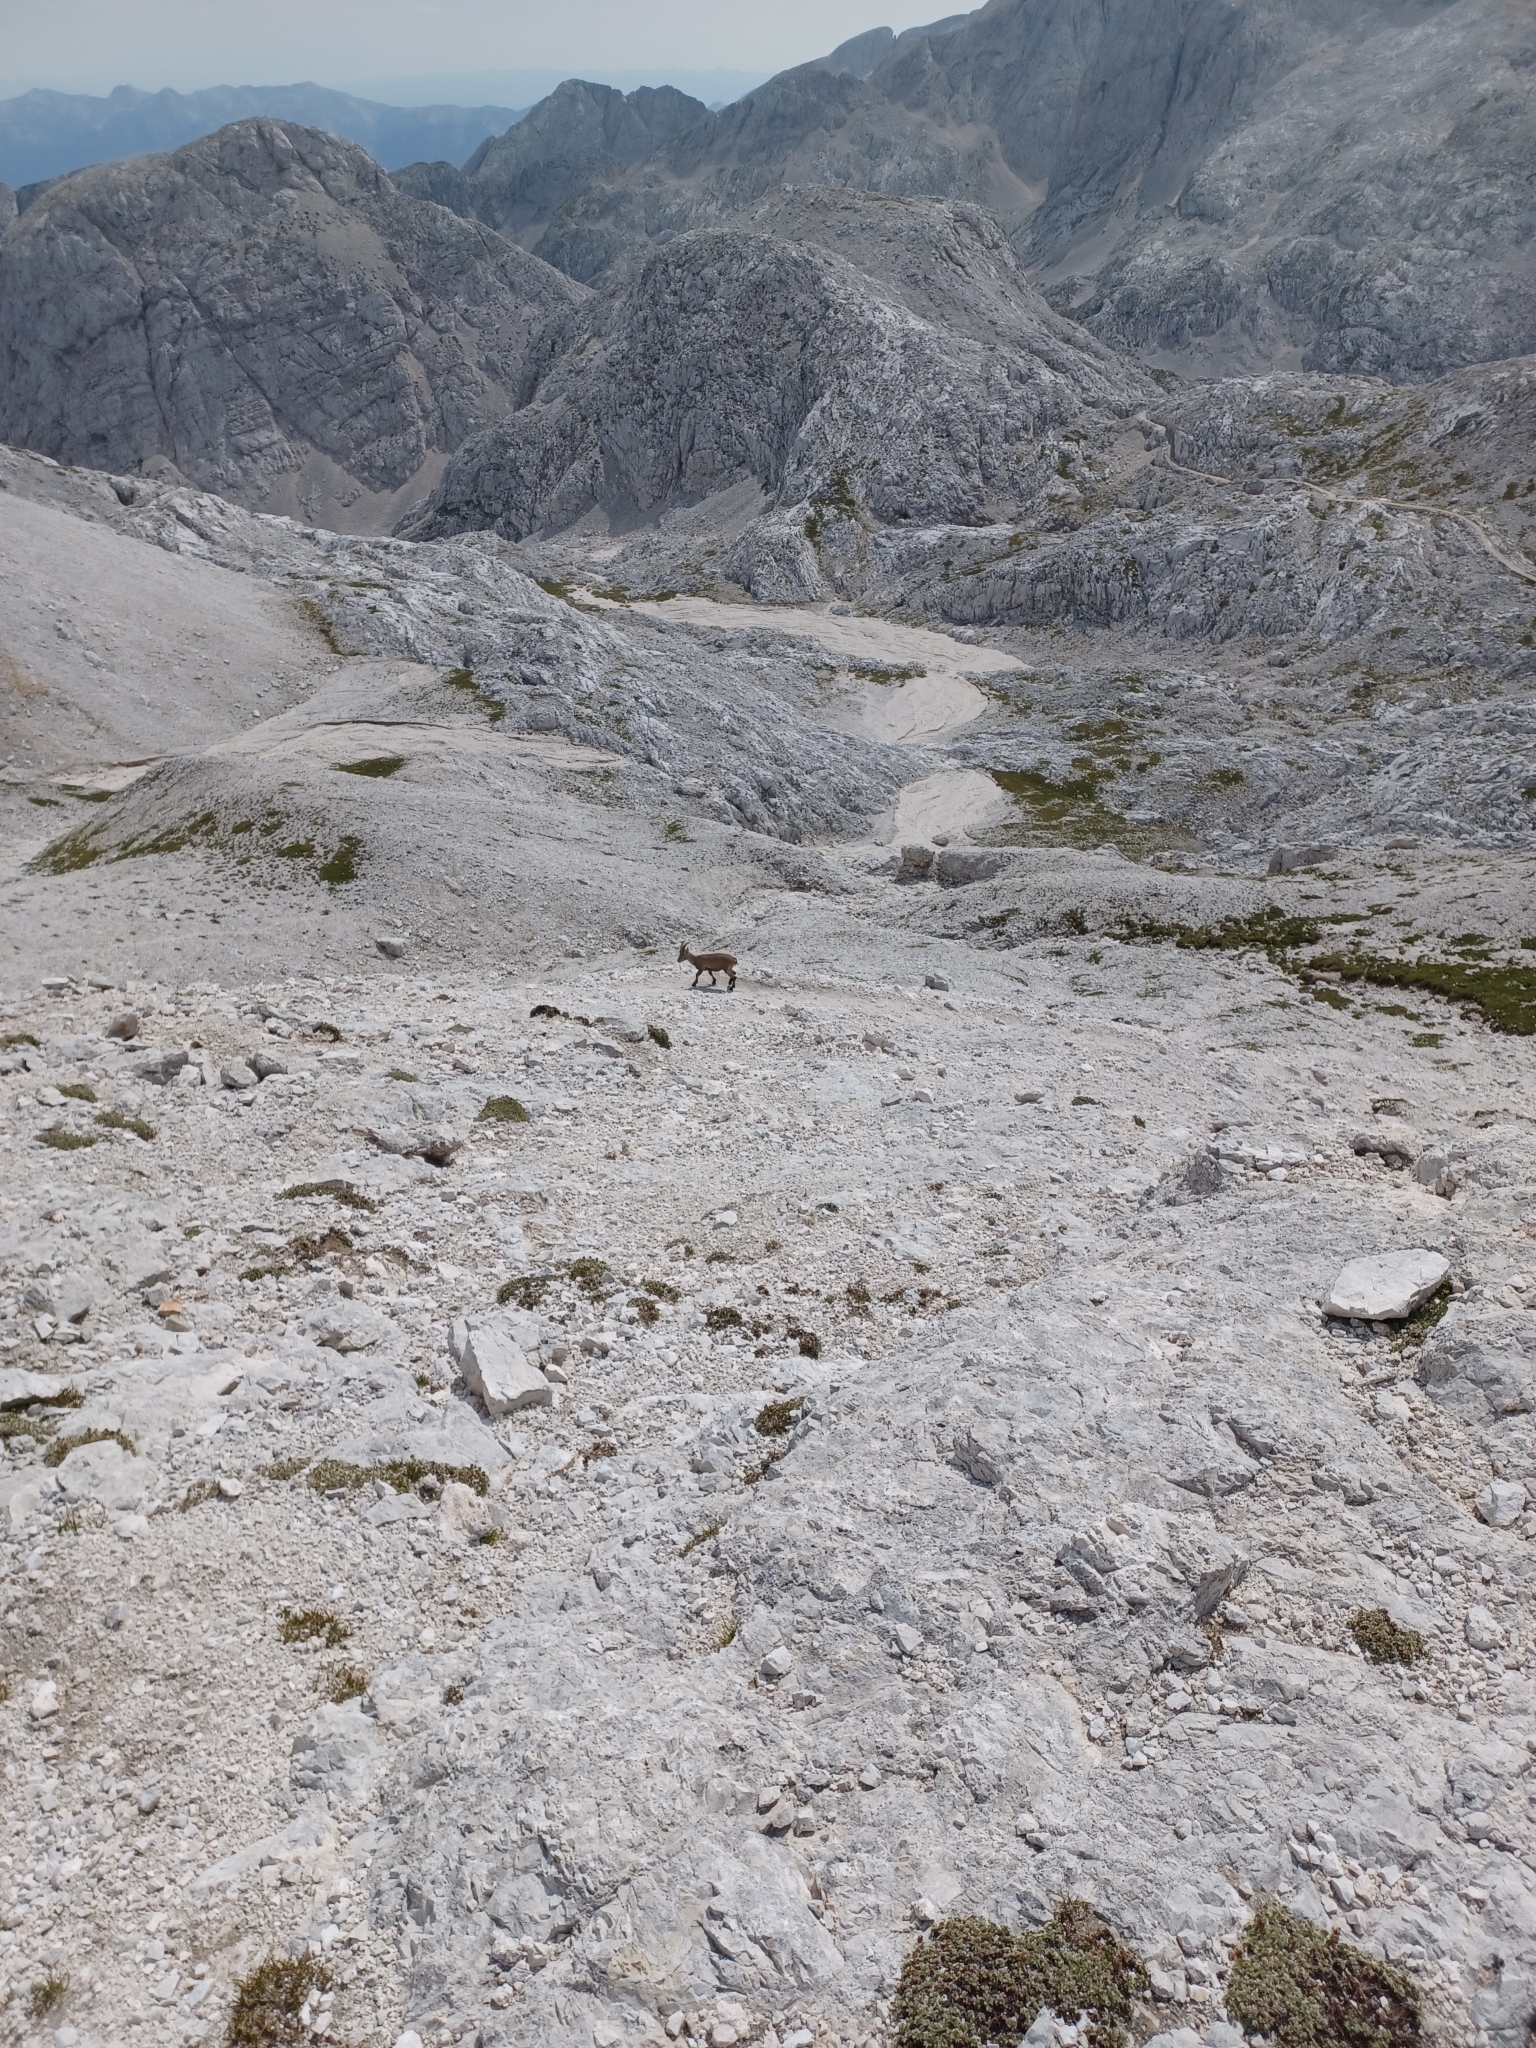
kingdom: Animalia
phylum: Chordata
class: Mammalia
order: Artiodactyla
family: Bovidae
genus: Capra
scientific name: Capra ibex
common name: Alpine ibex
